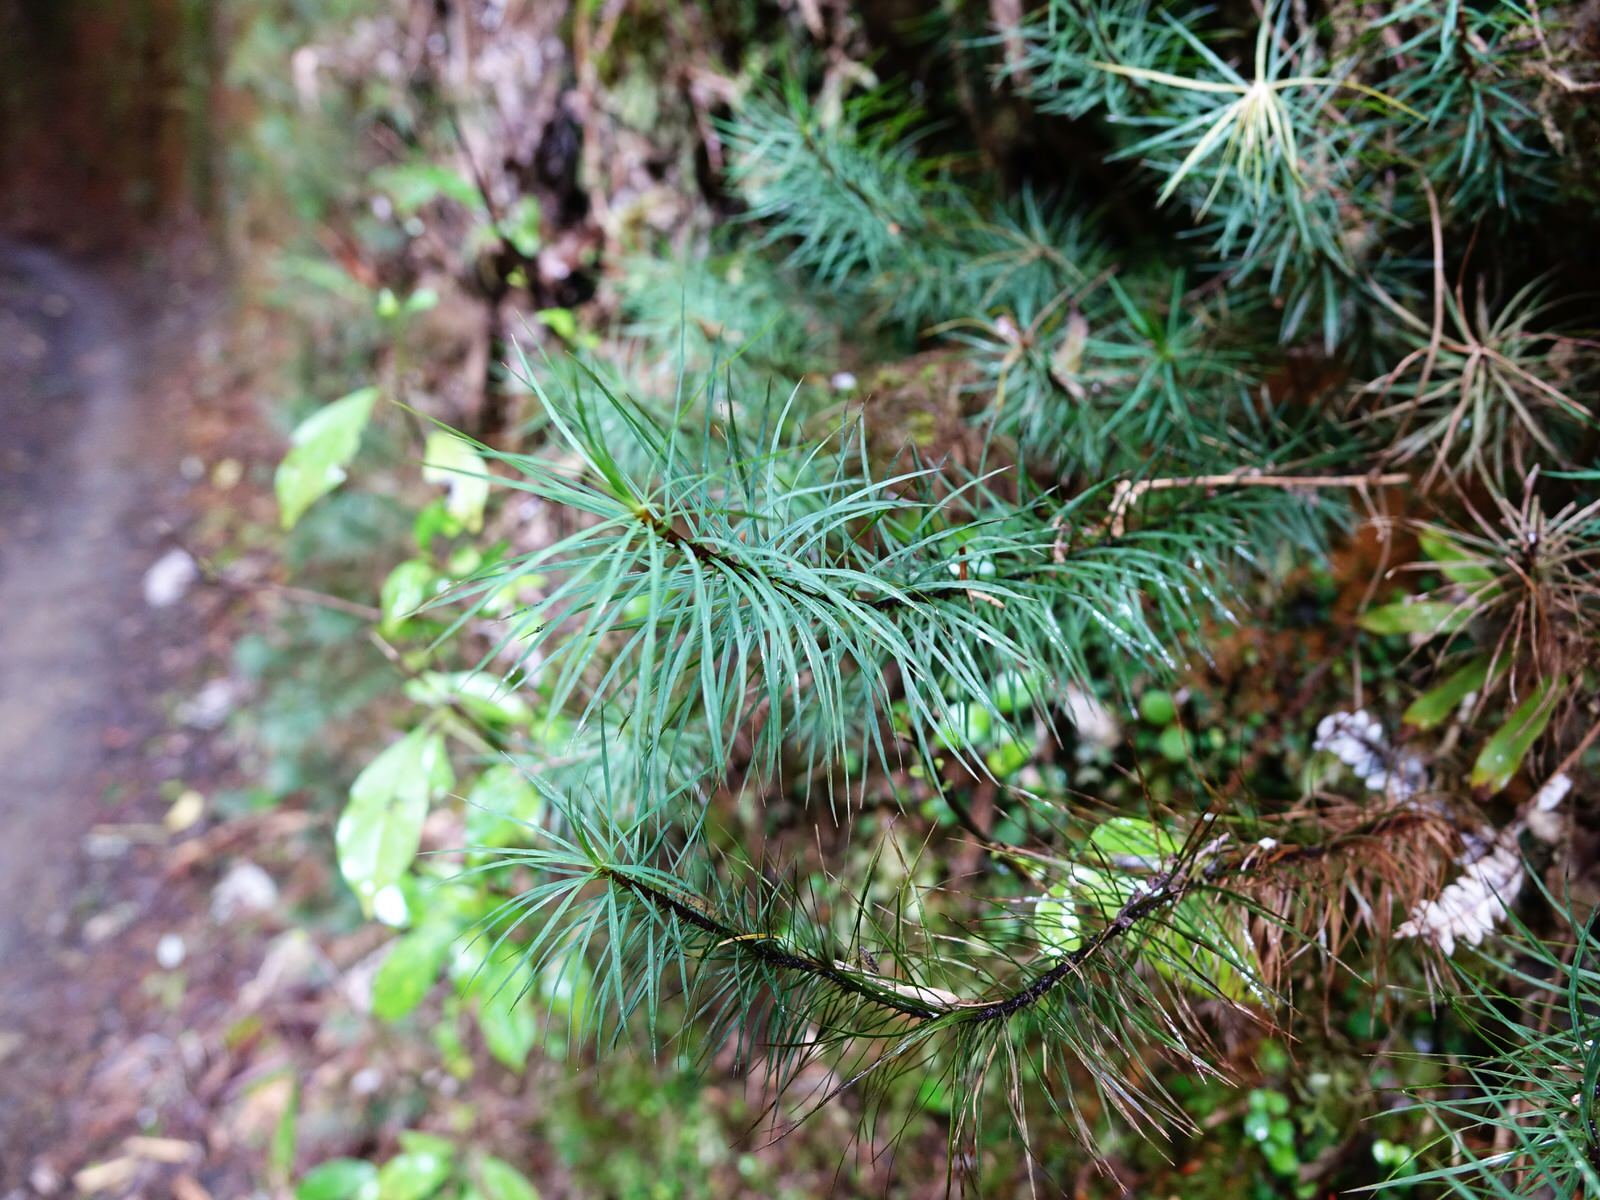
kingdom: Plantae
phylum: Bryophyta
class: Polytrichopsida
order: Polytrichales
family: Polytrichaceae
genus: Dawsonia
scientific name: Dawsonia superba
